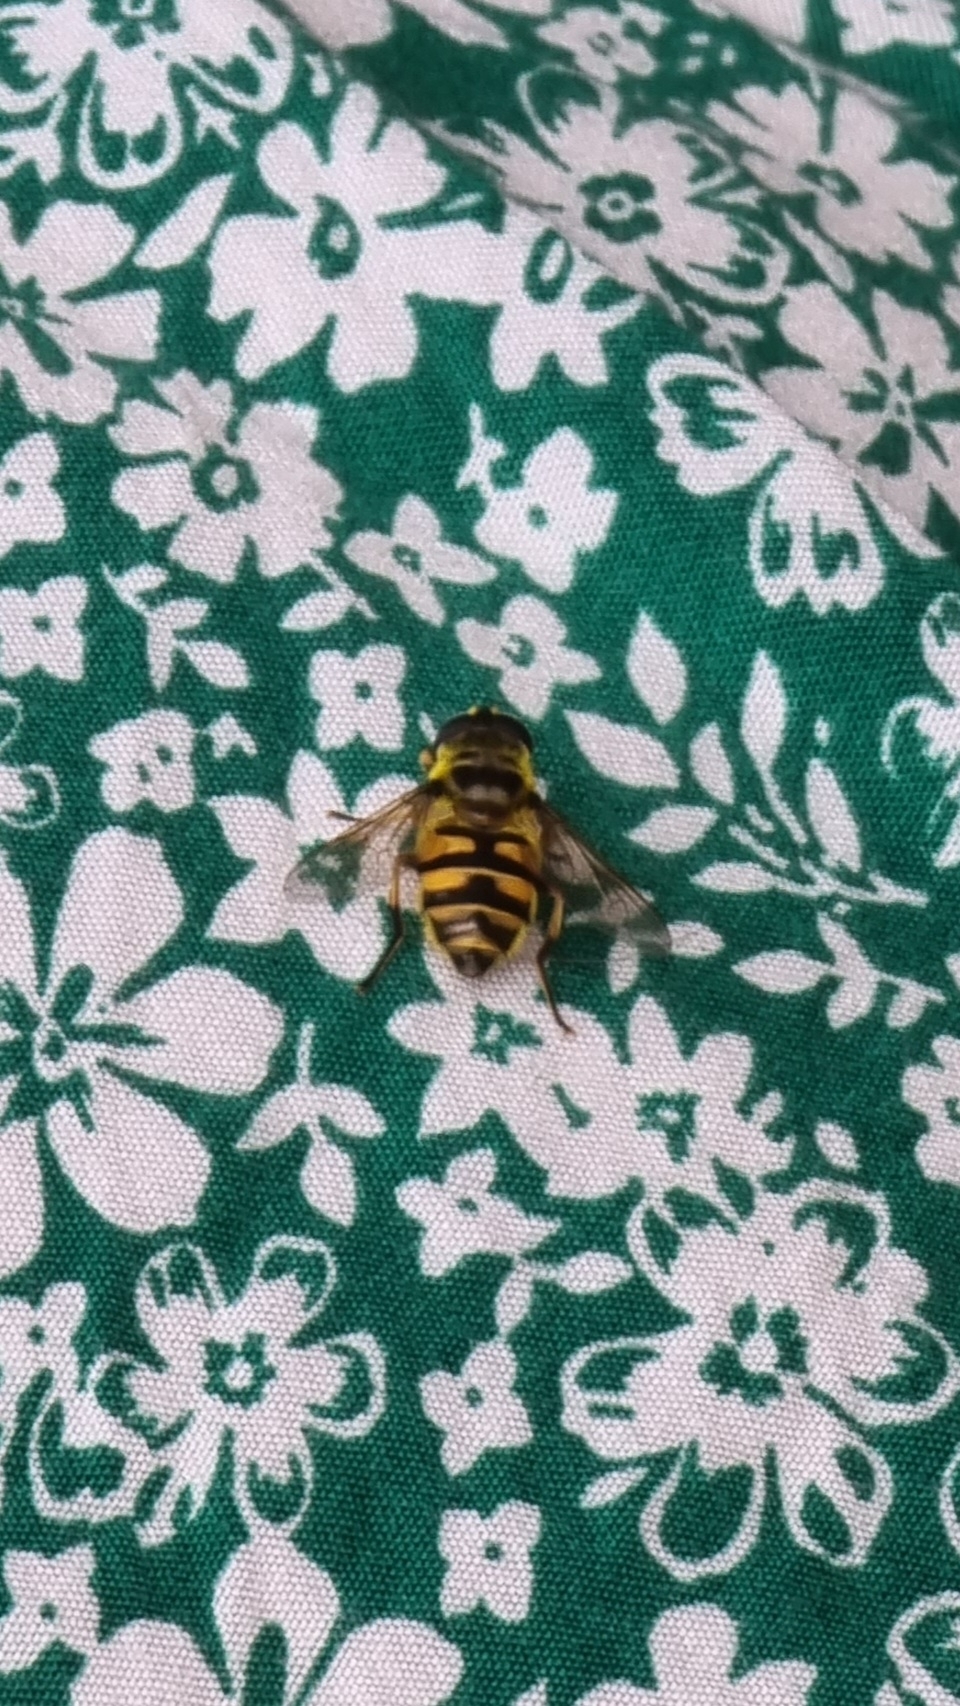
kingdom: Animalia
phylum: Arthropoda
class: Insecta
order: Diptera
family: Syrphidae
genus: Myathropa
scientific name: Myathropa florea
